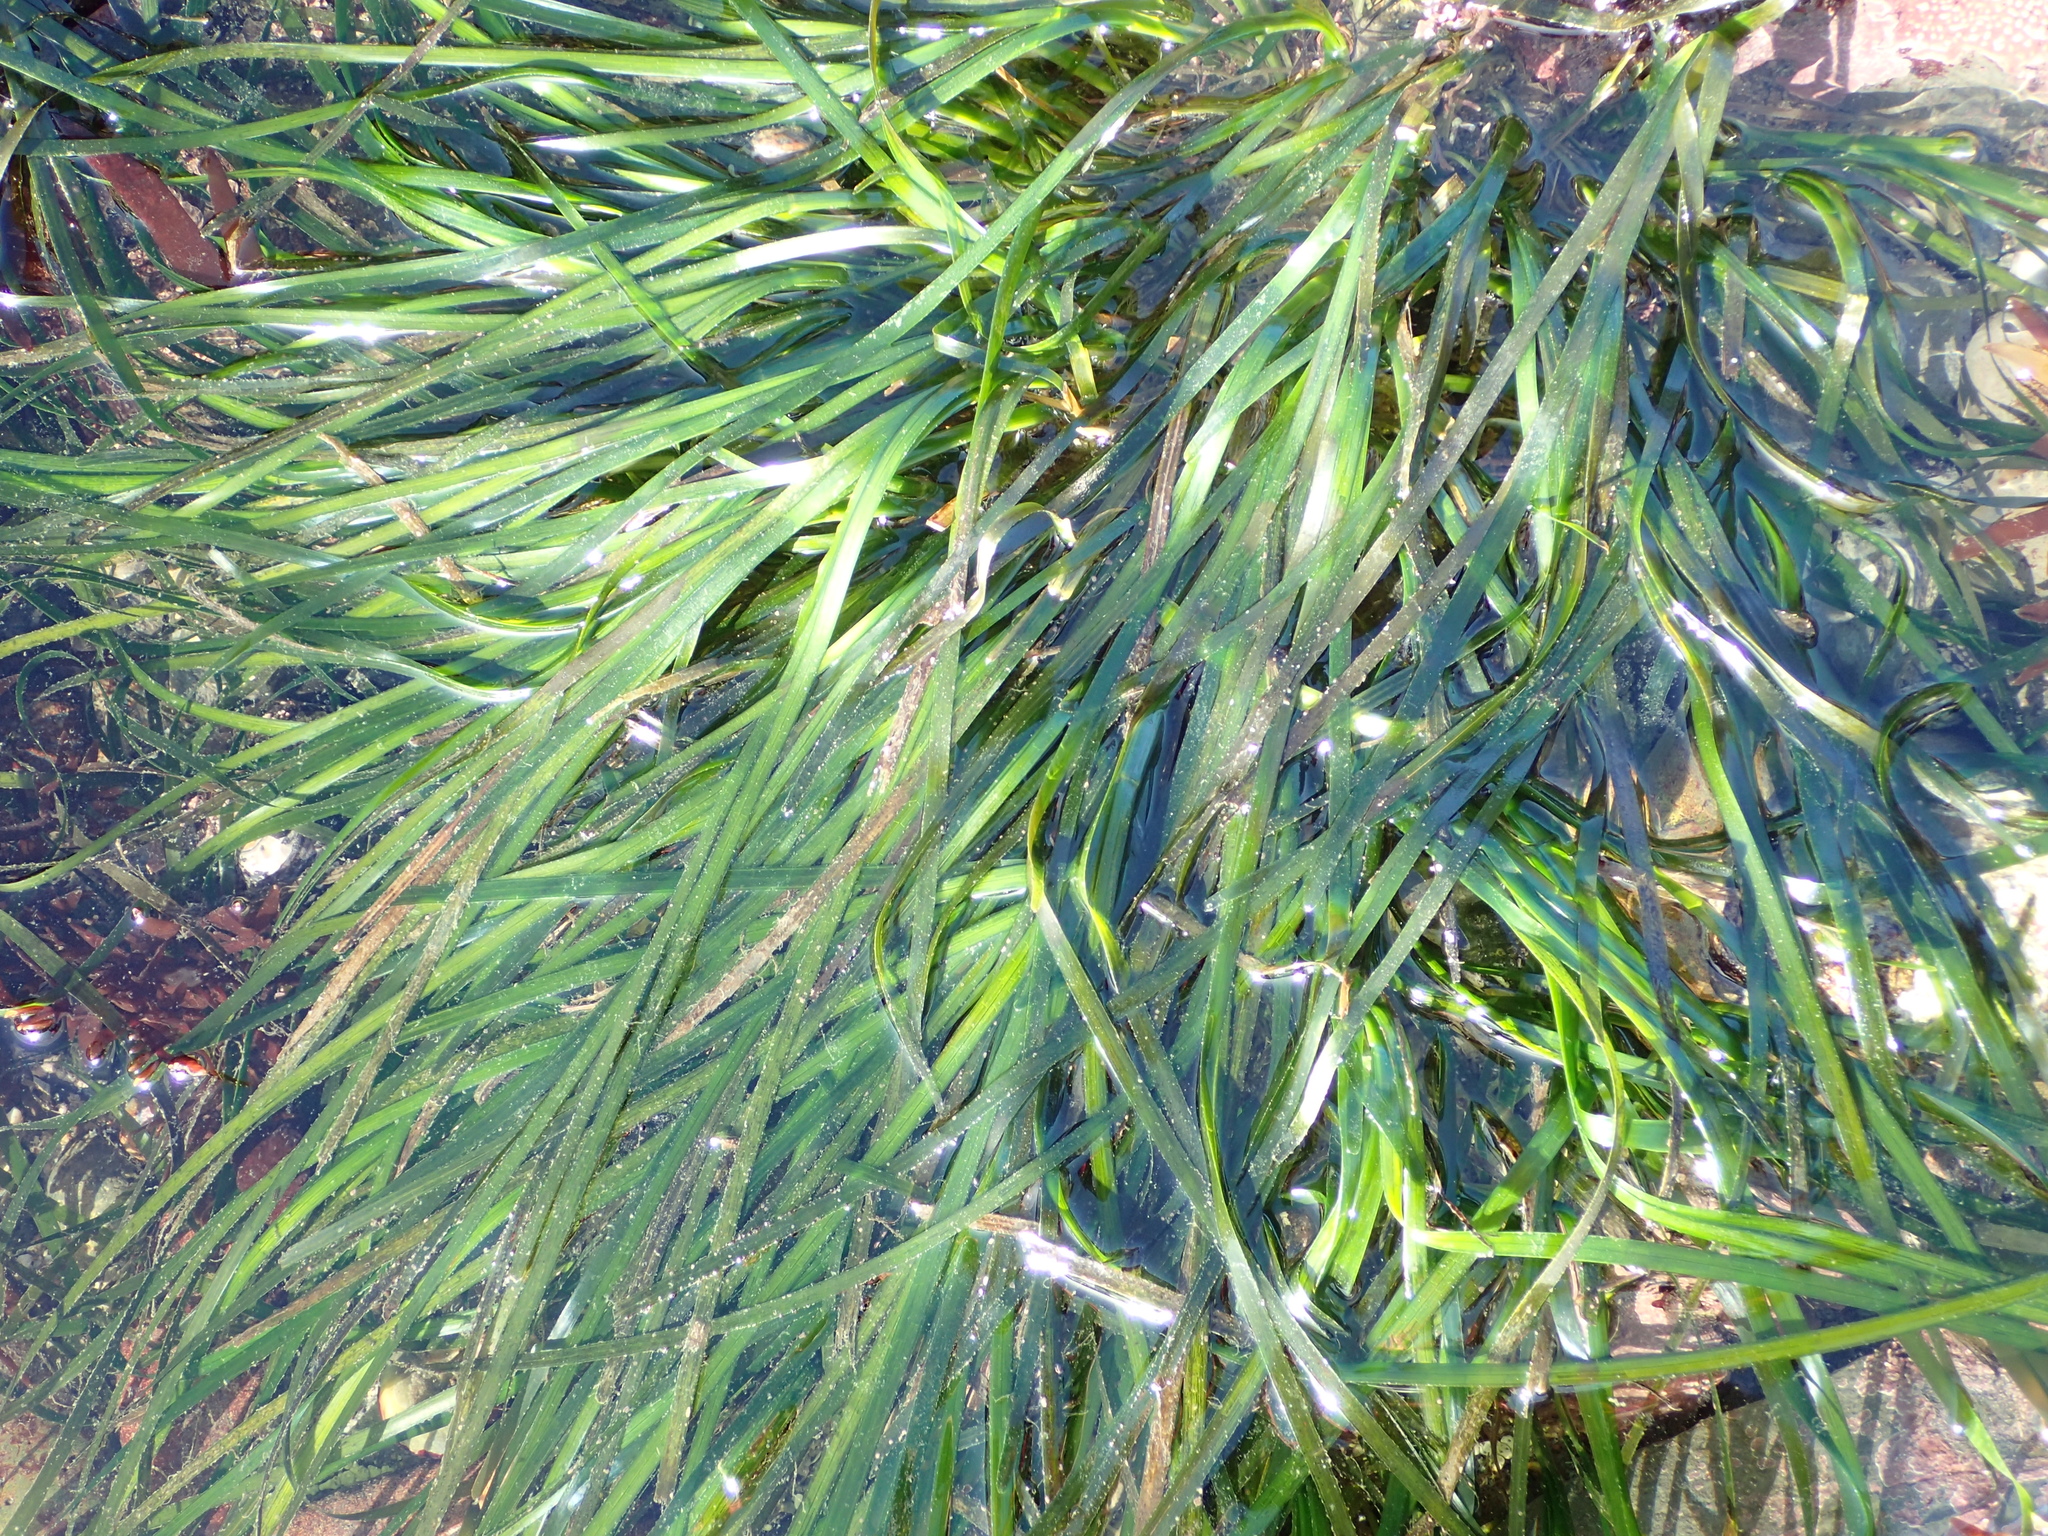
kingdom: Plantae
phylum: Tracheophyta
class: Liliopsida
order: Alismatales
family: Zosteraceae
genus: Phyllospadix
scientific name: Phyllospadix scouleri
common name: Species code: ps
